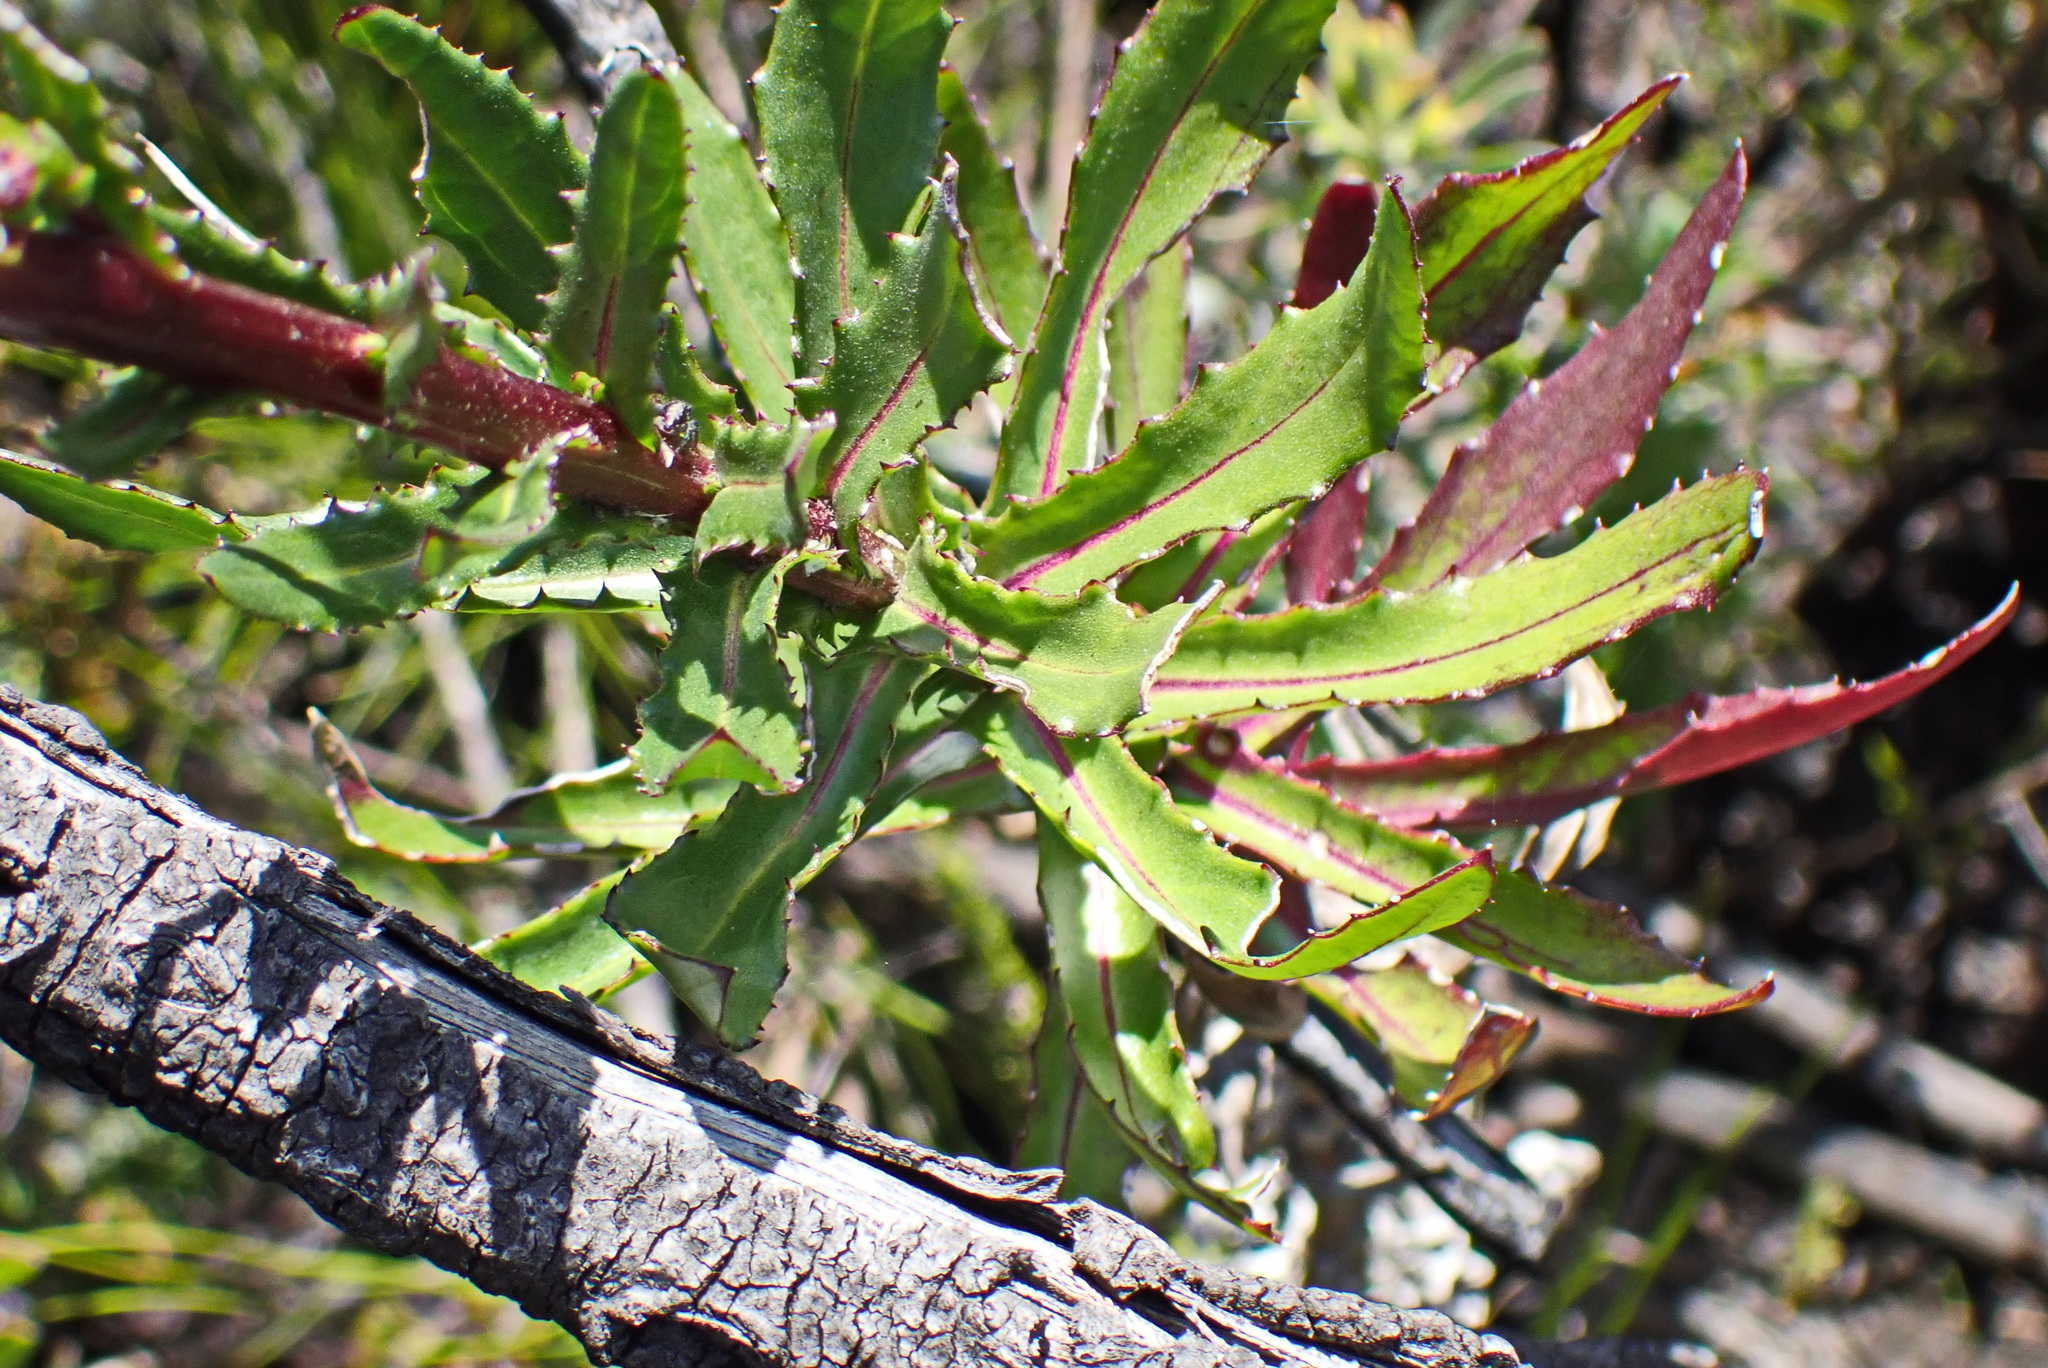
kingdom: Plantae
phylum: Tracheophyta
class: Magnoliopsida
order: Asterales
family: Asteraceae
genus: Senecio
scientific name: Senecio glastifolius
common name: Woad-leaved ragwort
